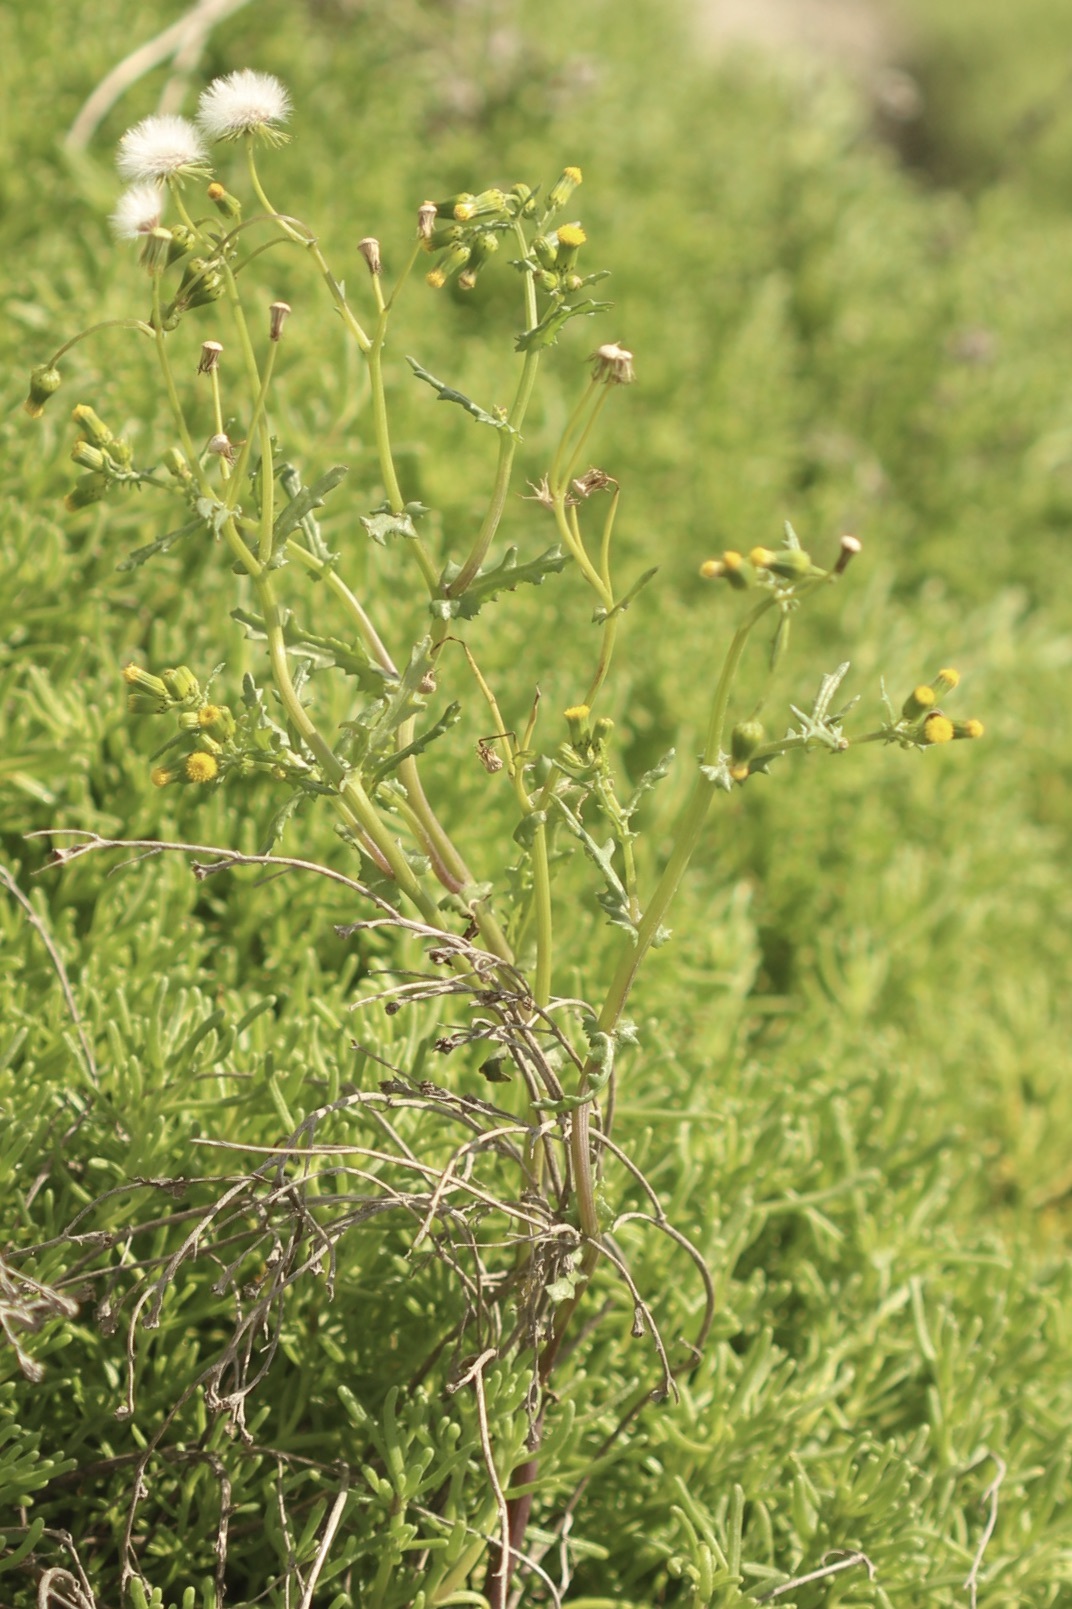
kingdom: Plantae
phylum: Tracheophyta
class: Magnoliopsida
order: Asterales
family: Asteraceae
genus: Senecio
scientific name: Senecio vulgaris
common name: Old-man-in-the-spring
